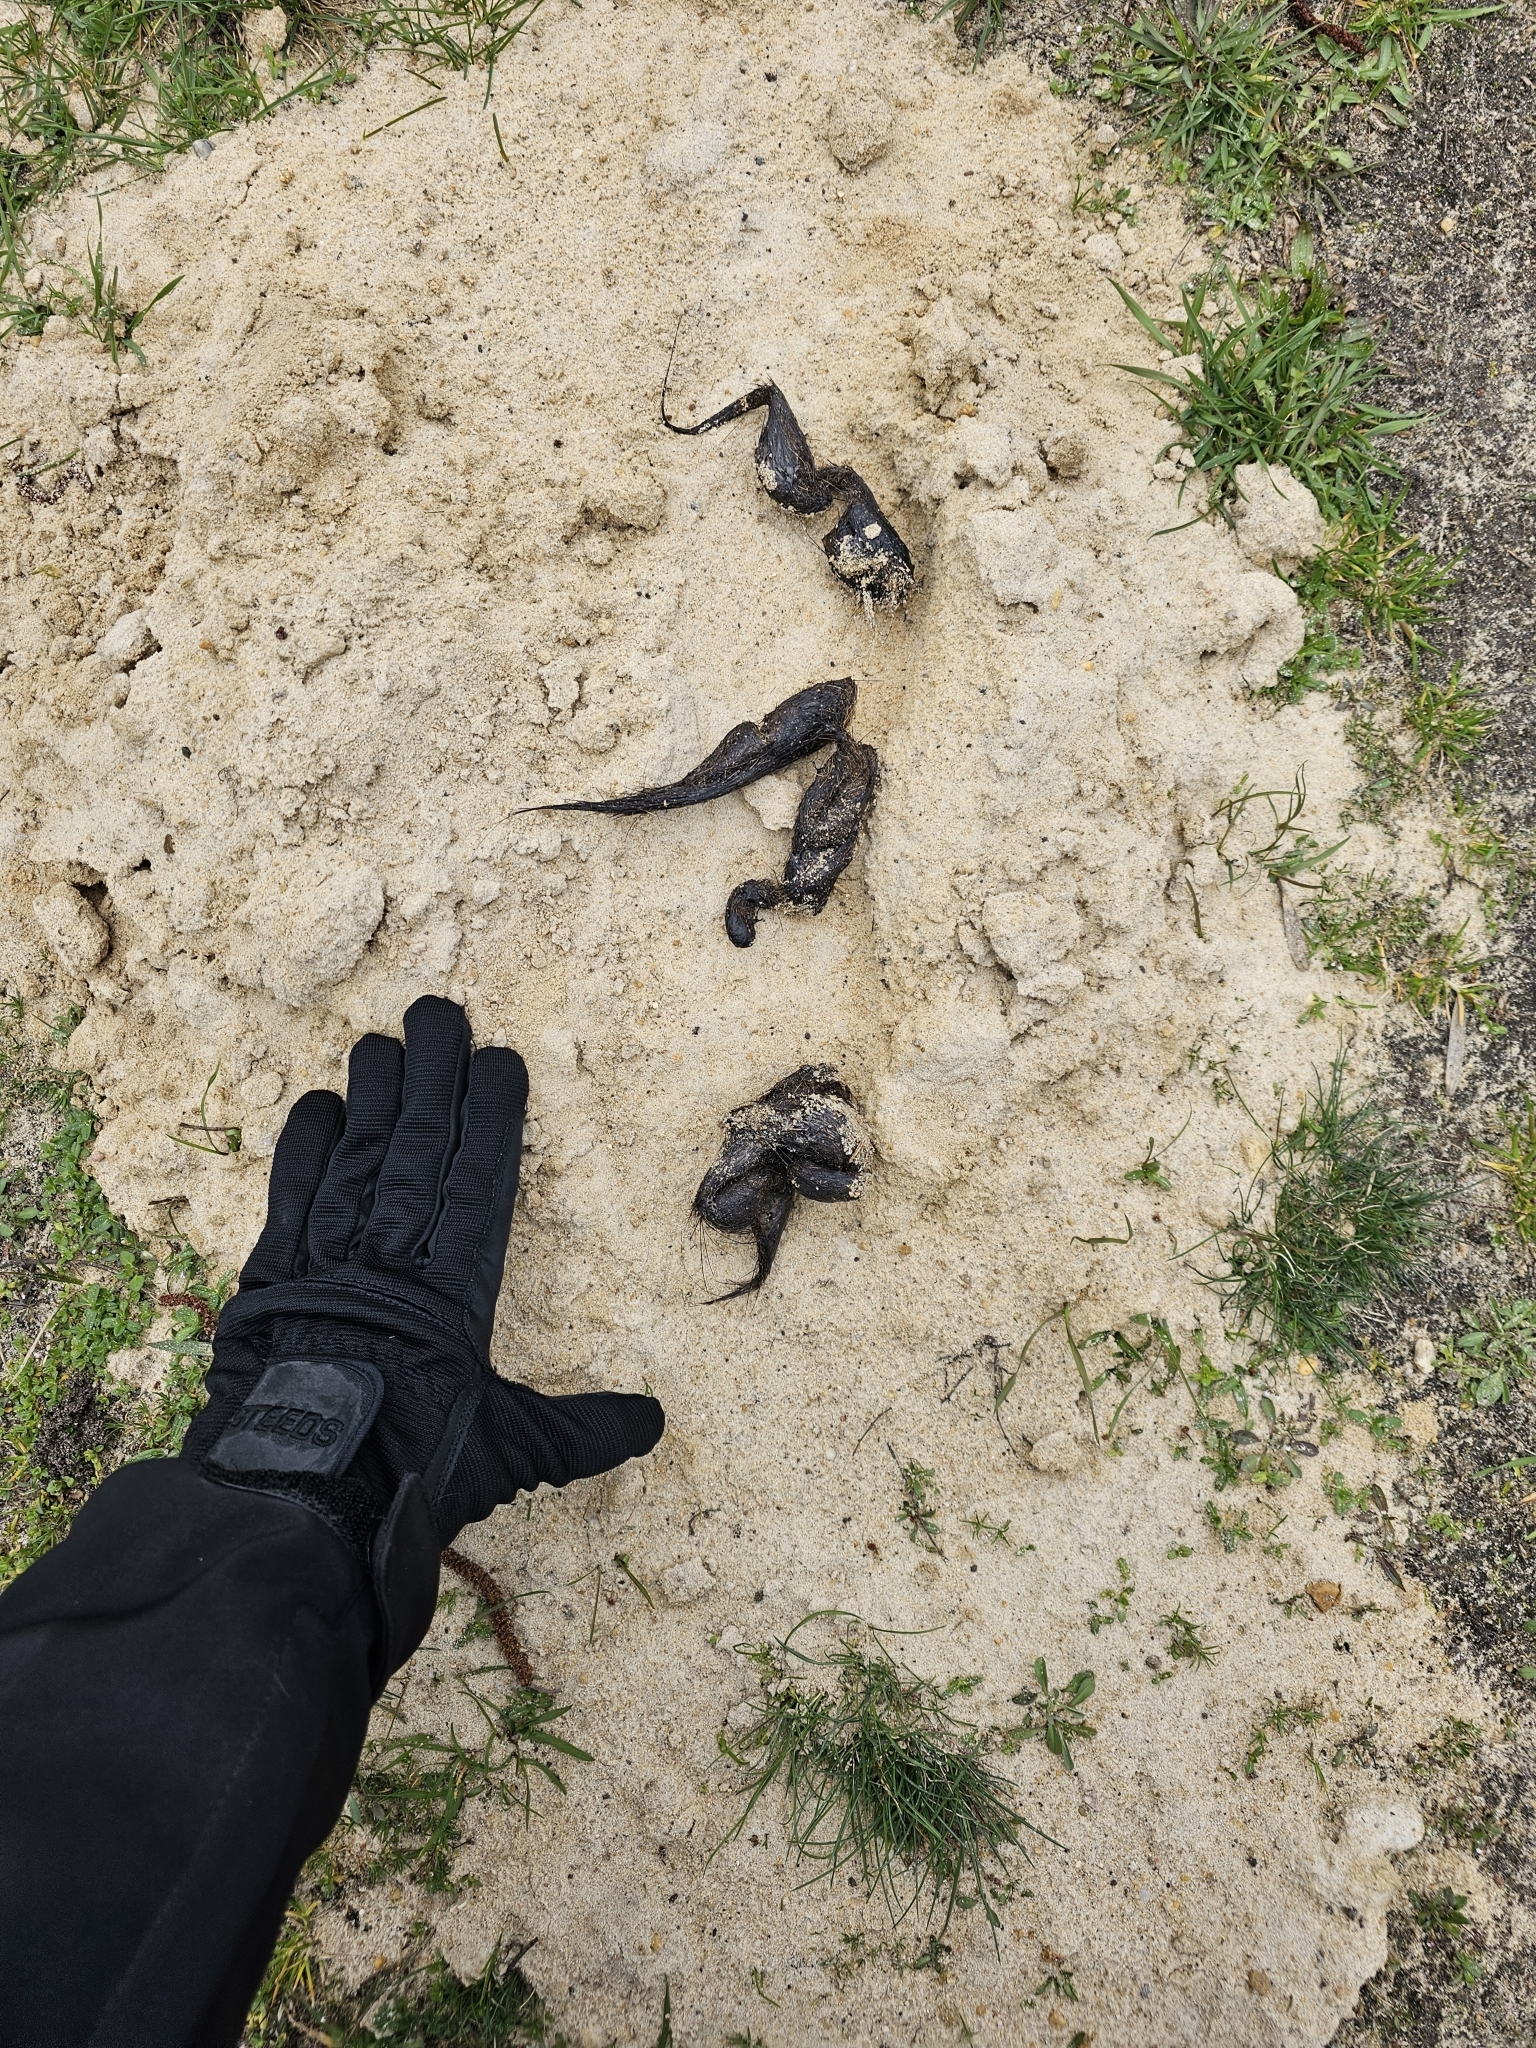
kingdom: Animalia
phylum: Chordata
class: Mammalia
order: Carnivora
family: Canidae
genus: Canis
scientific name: Canis lupus
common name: Gray wolf
